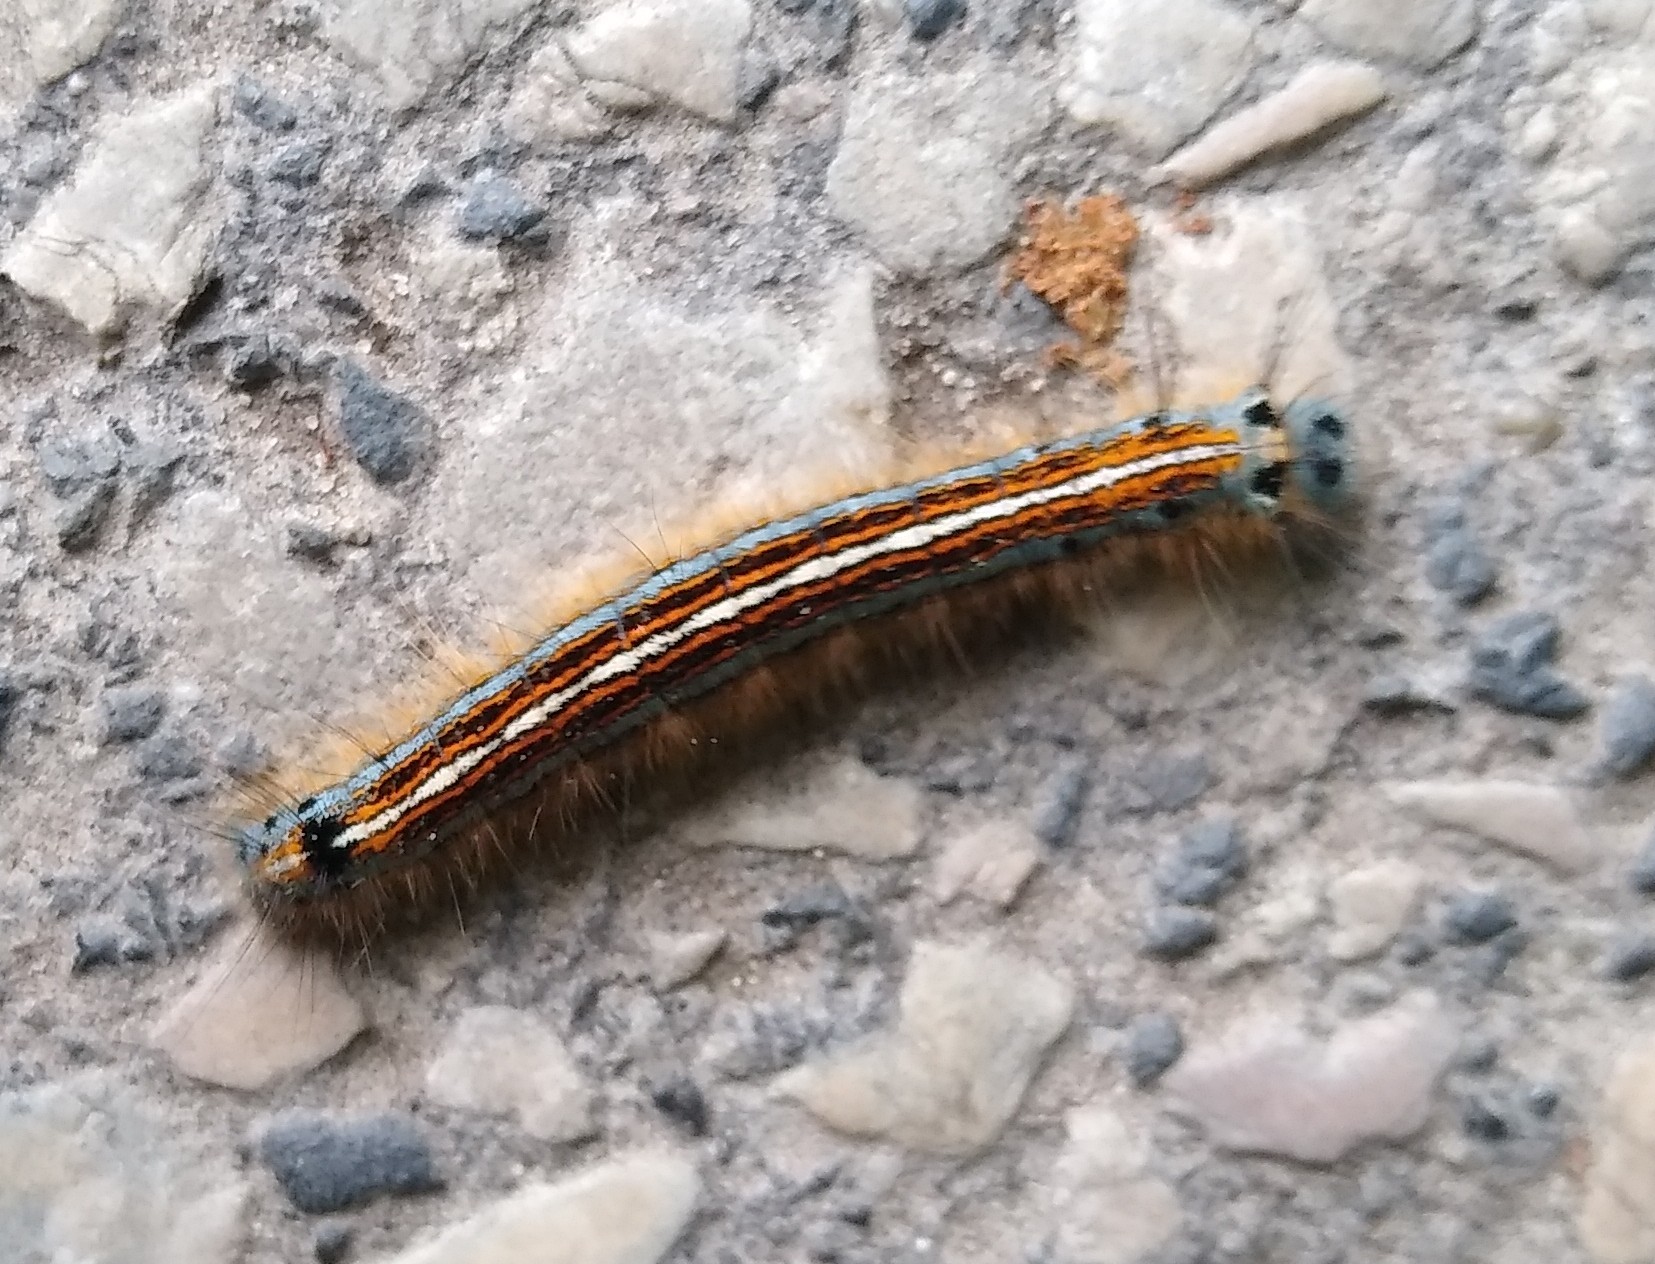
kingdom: Animalia
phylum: Arthropoda
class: Insecta
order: Lepidoptera
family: Lasiocampidae
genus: Malacosoma
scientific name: Malacosoma neustria
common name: The lackey
